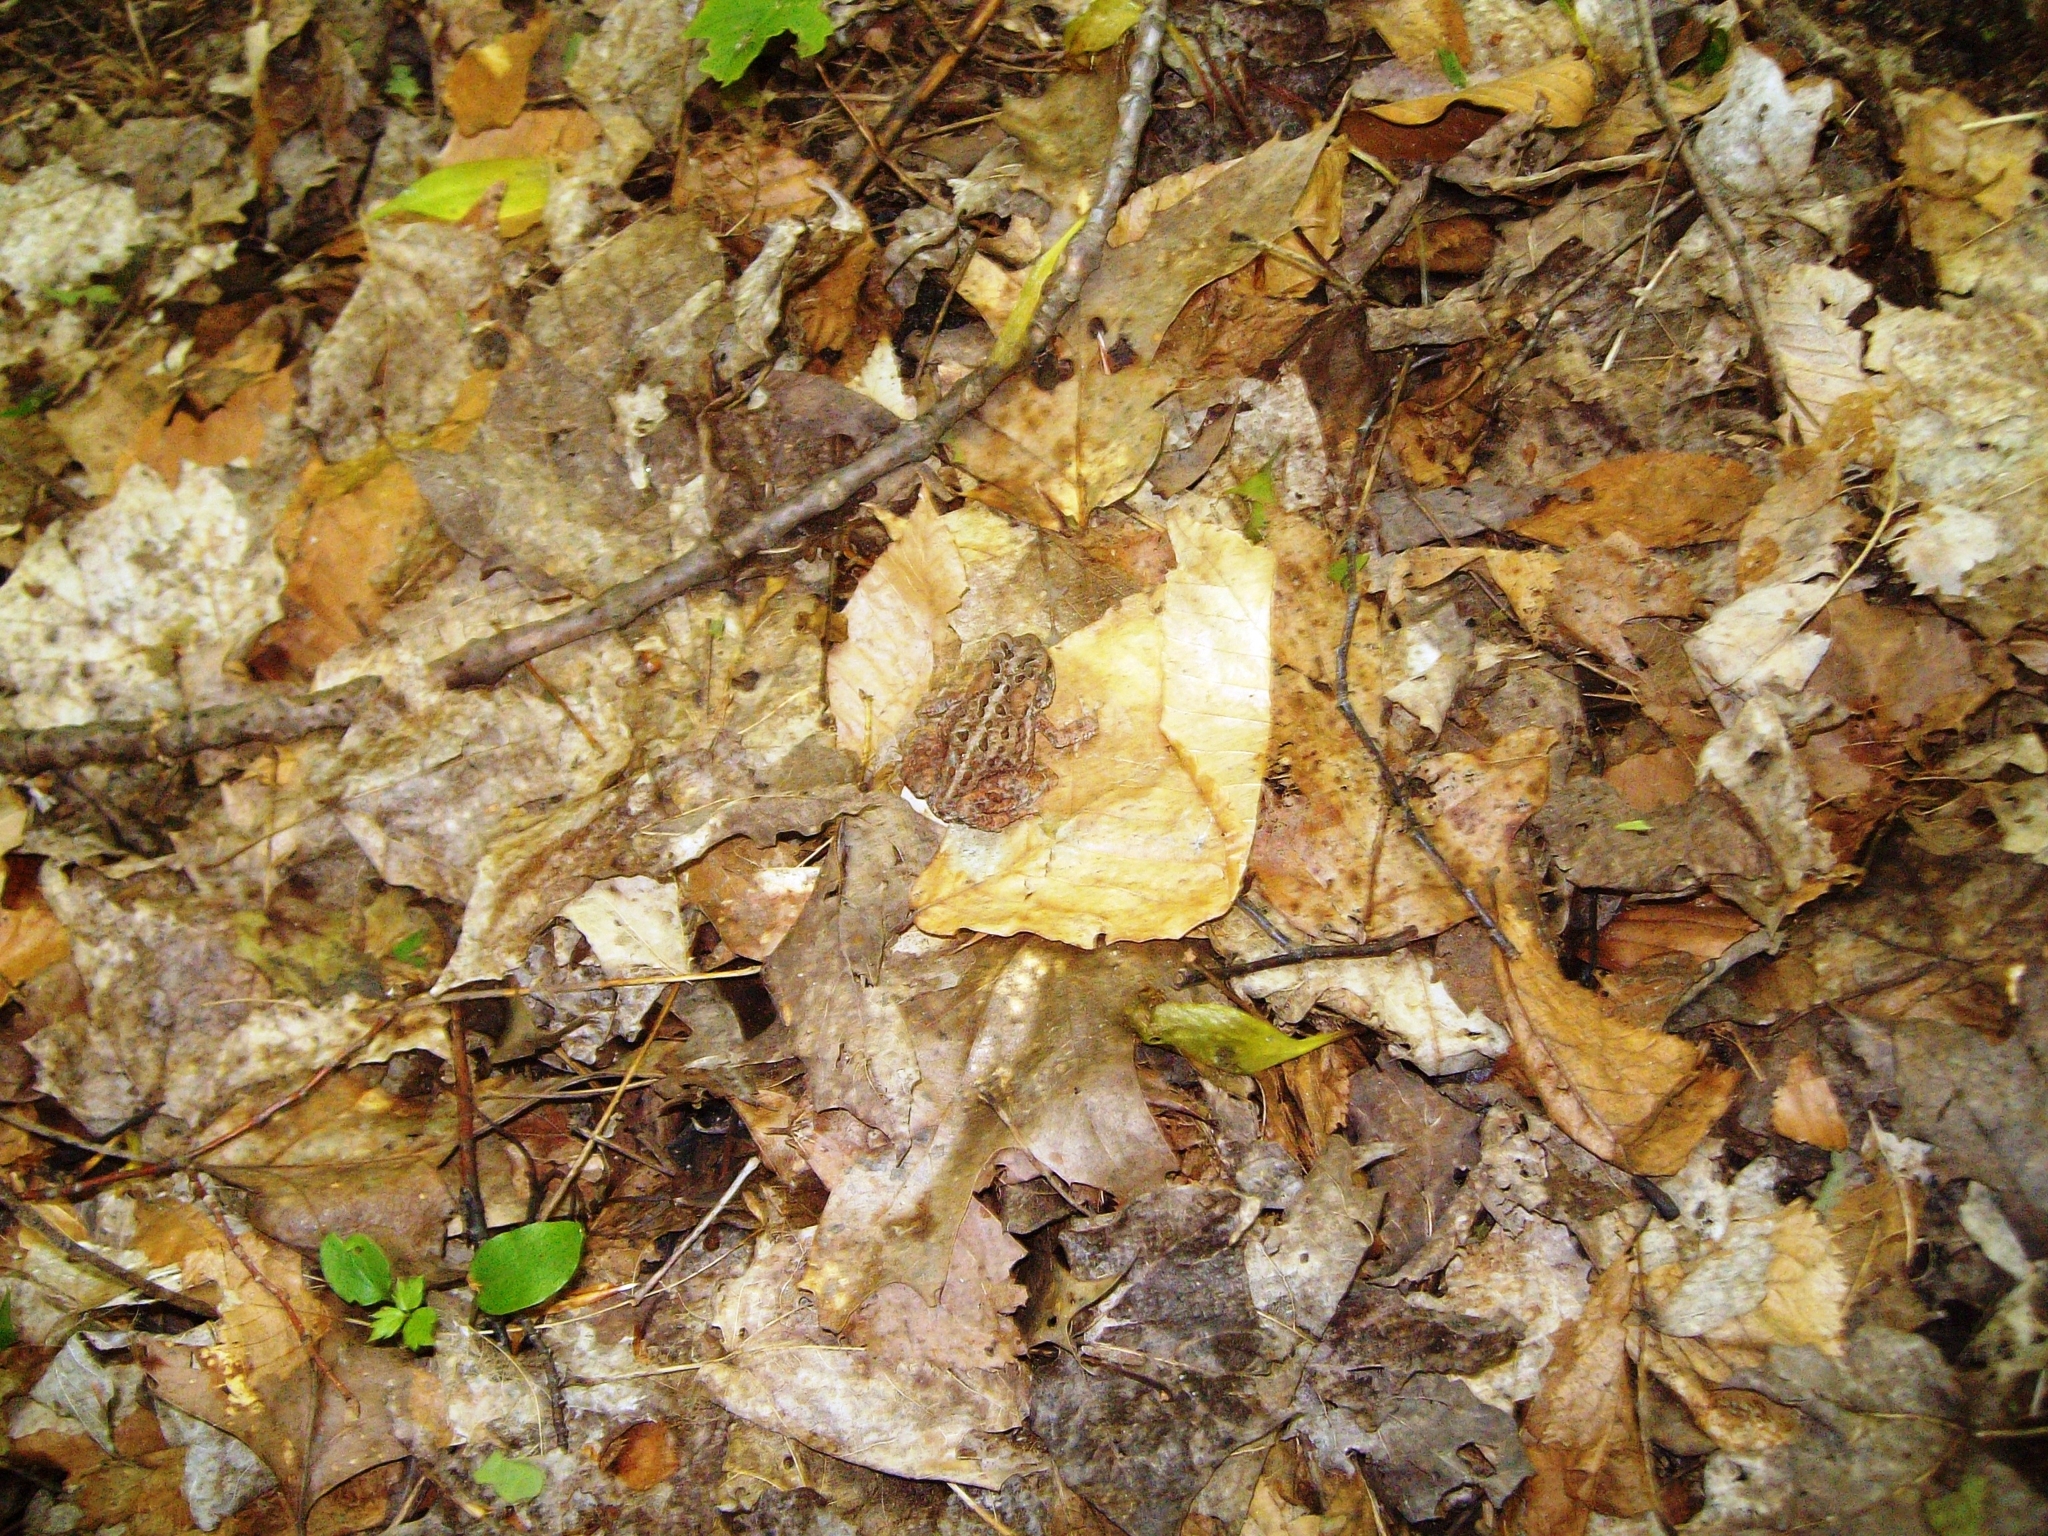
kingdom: Animalia
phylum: Chordata
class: Amphibia
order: Anura
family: Bufonidae
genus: Anaxyrus
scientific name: Anaxyrus americanus
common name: American toad
